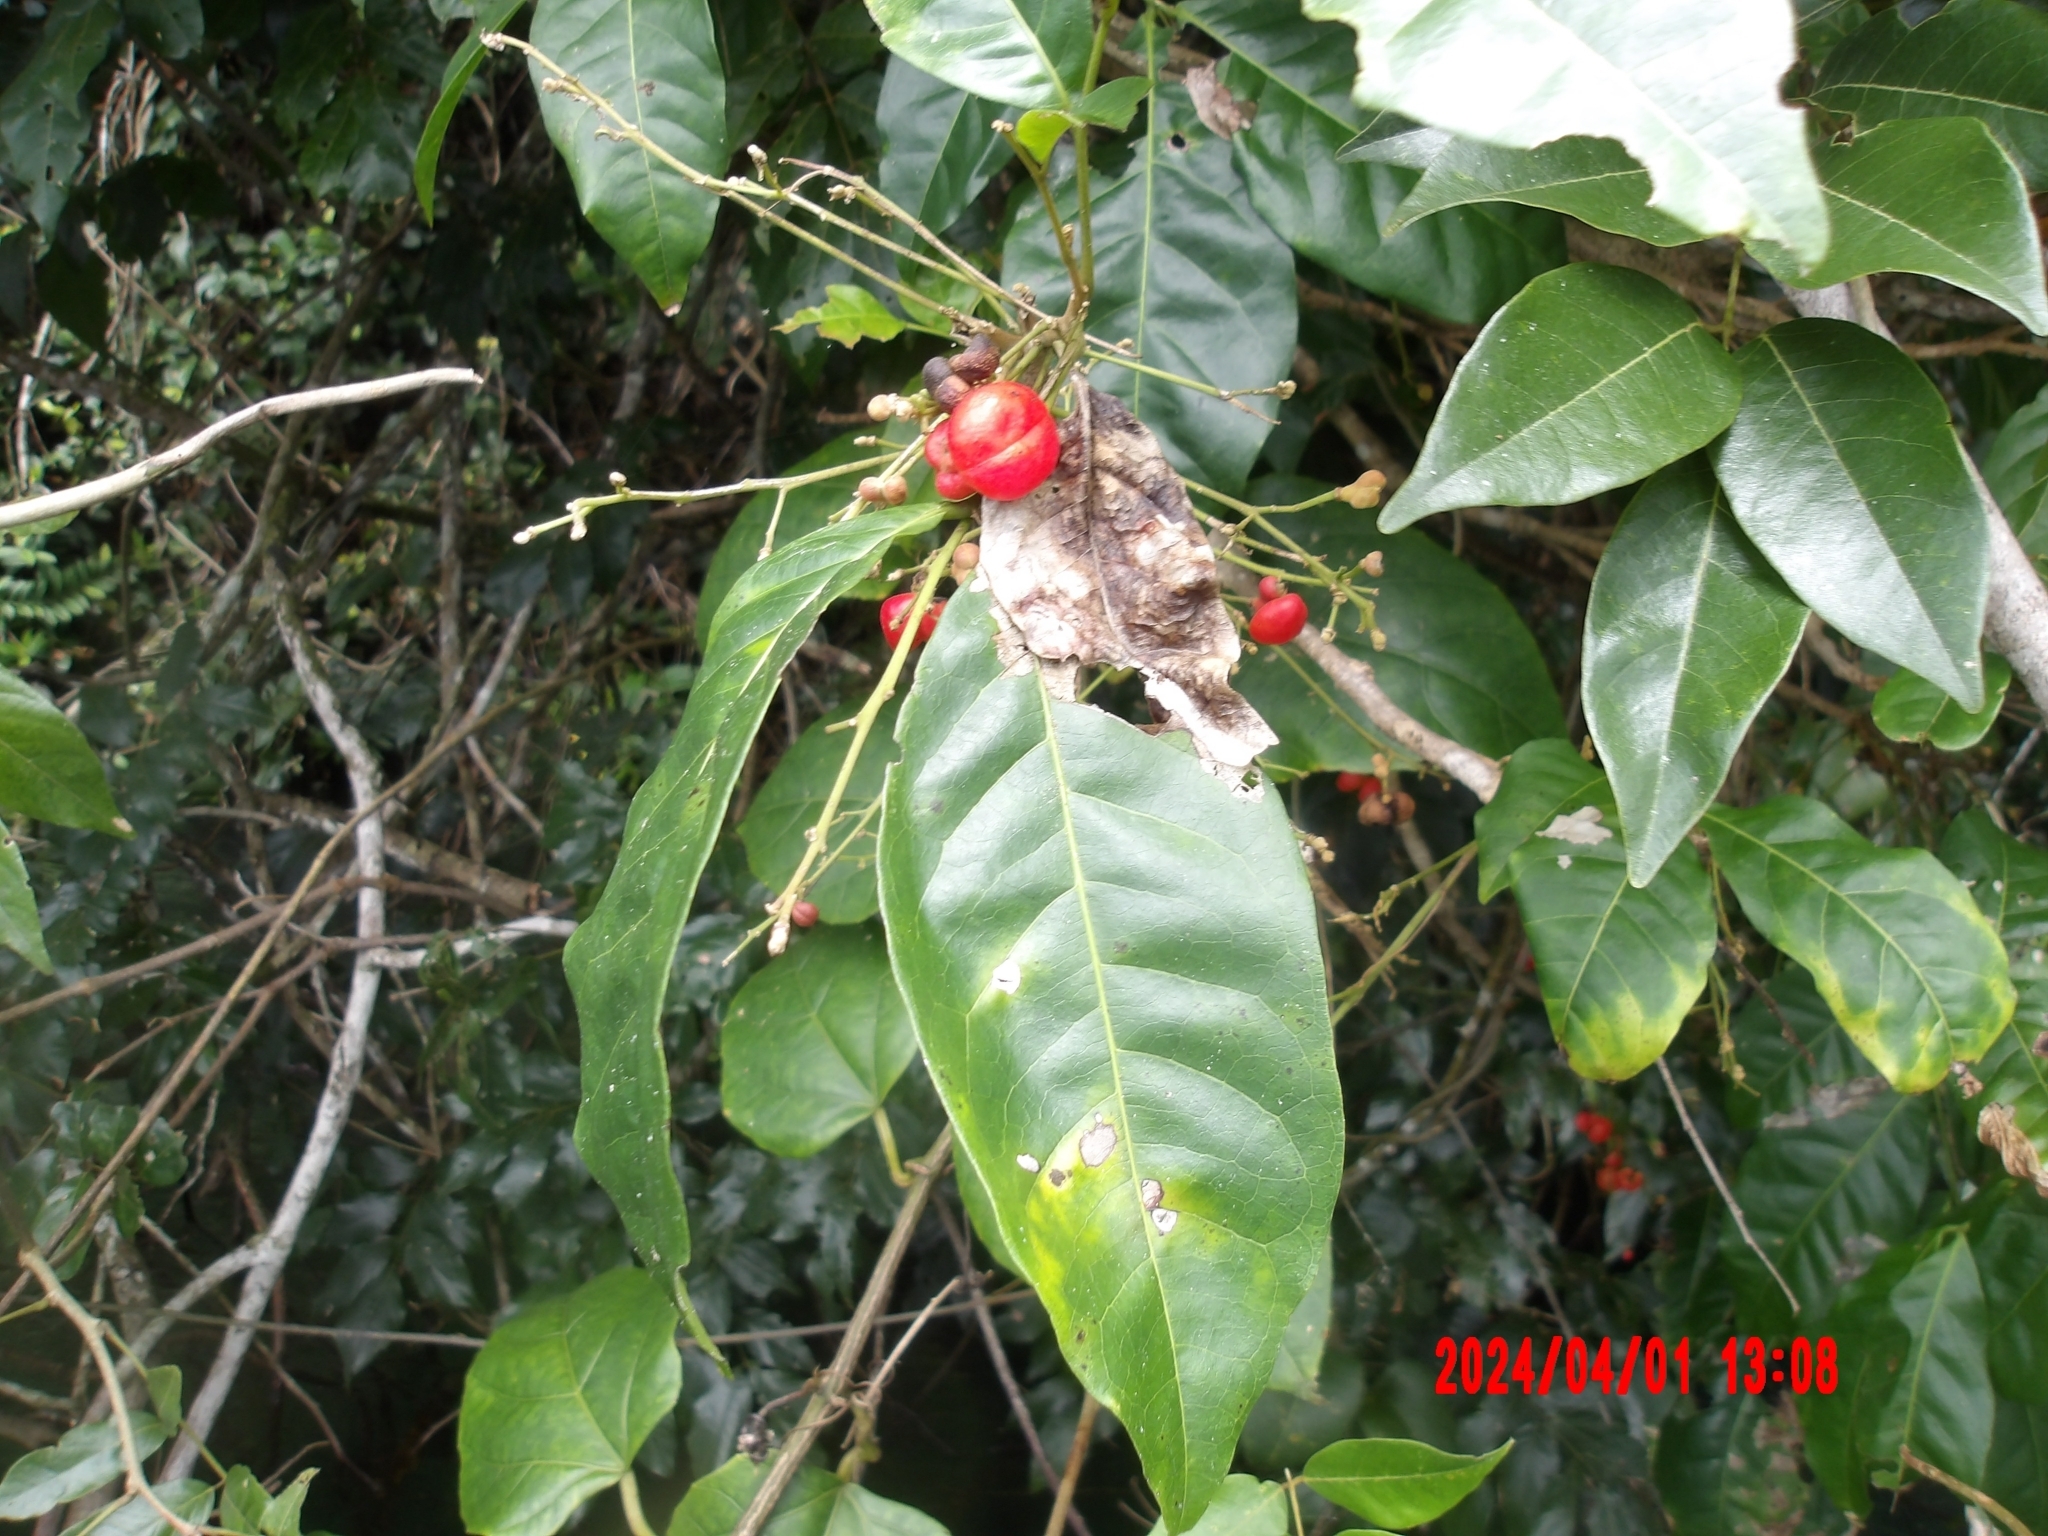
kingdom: Plantae
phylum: Tracheophyta
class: Magnoliopsida
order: Sapindales
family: Sapindaceae
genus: Harpullia
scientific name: Harpullia ramiflora
